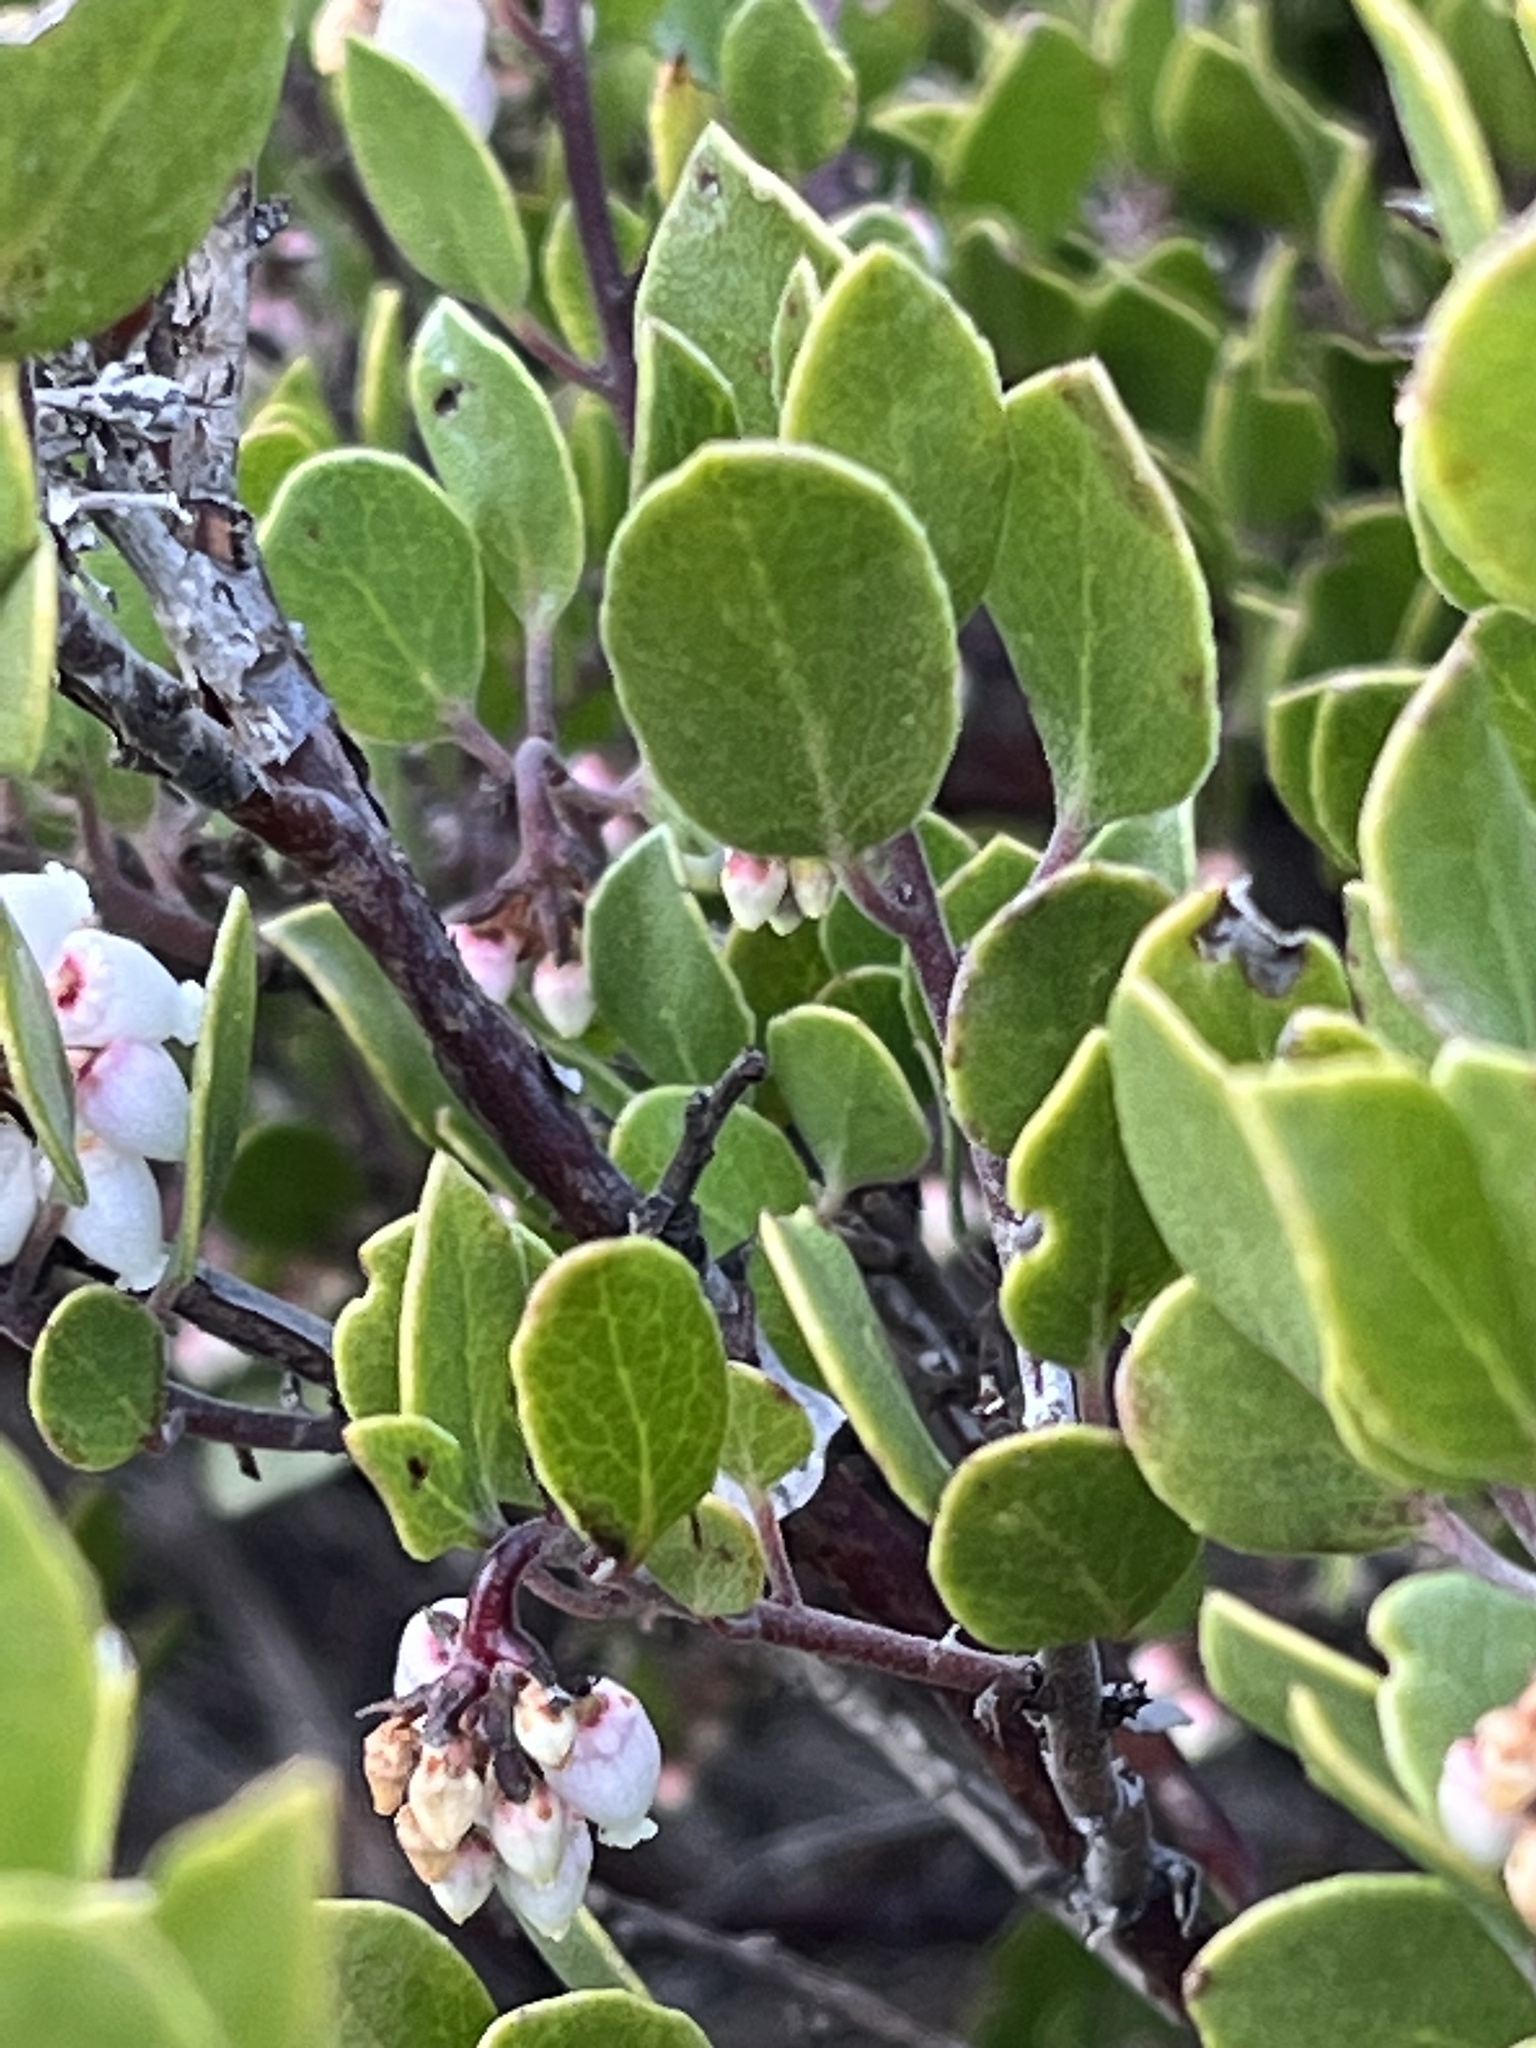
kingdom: Plantae
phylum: Tracheophyta
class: Magnoliopsida
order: Ericales
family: Ericaceae
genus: Arctostaphylos
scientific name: Arctostaphylos hookeri
